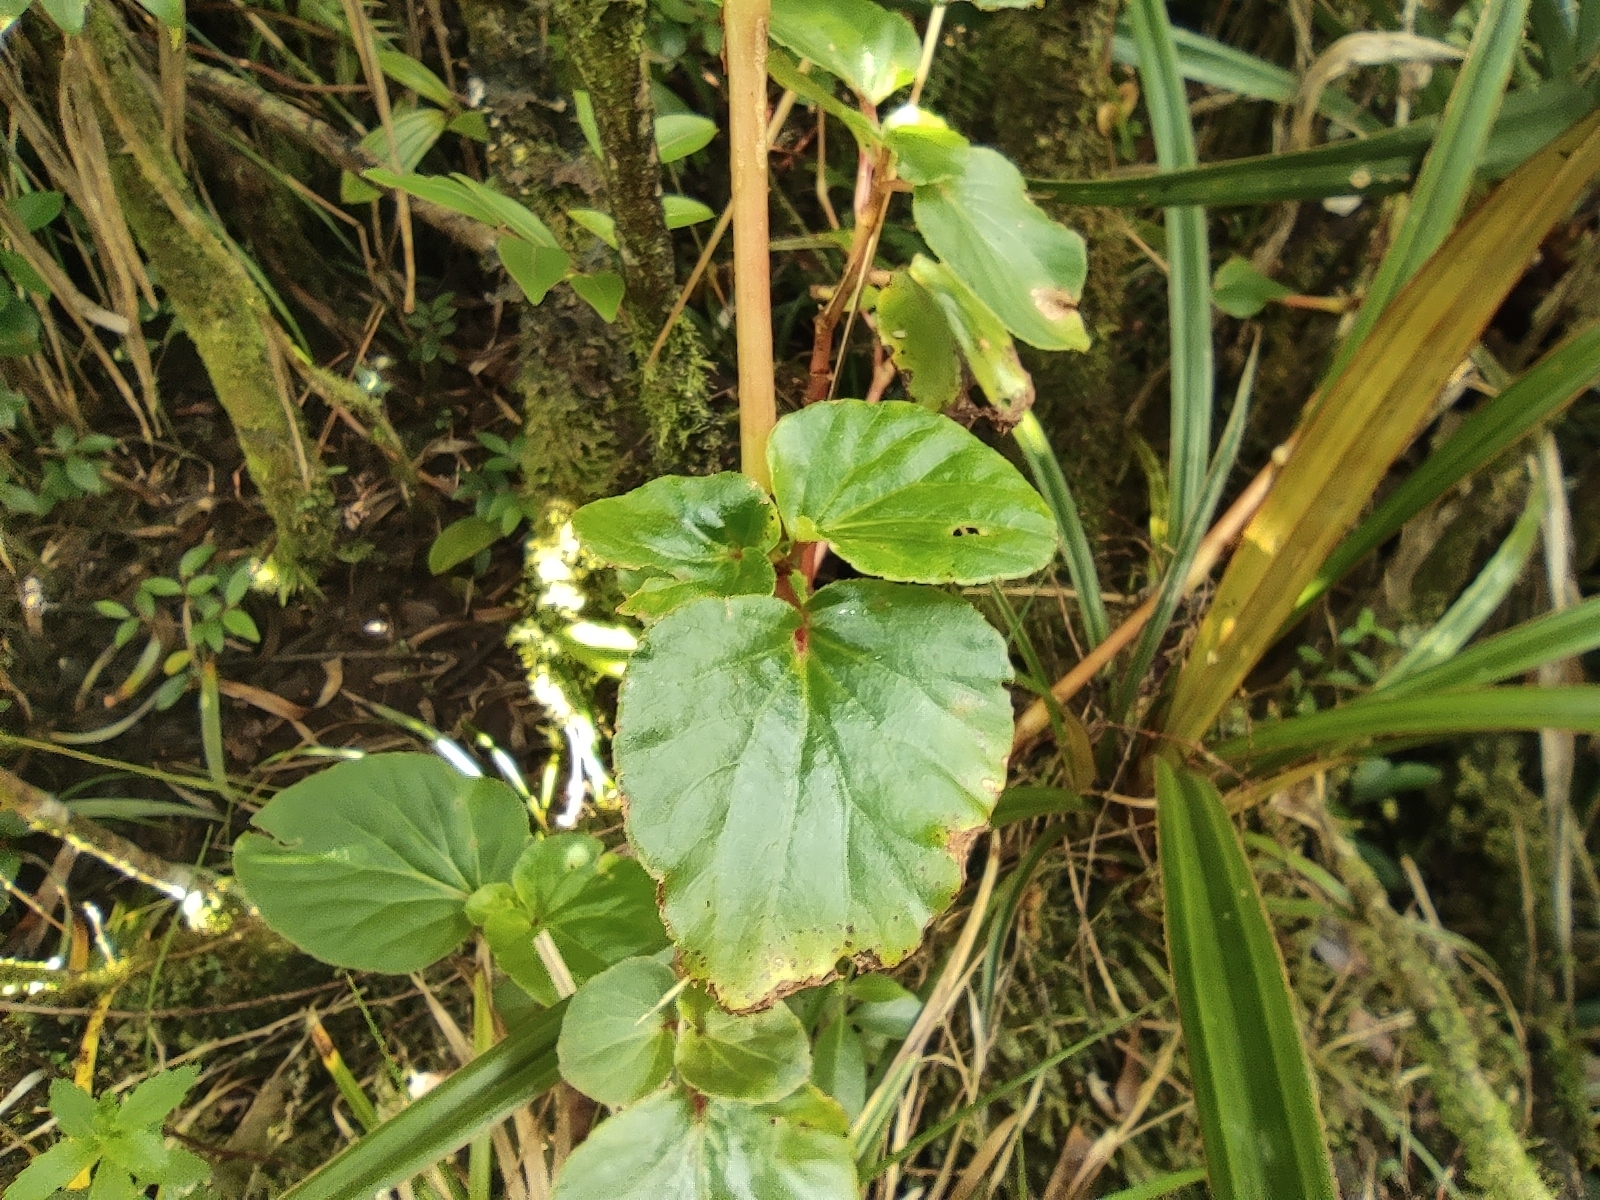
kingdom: Plantae
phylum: Tracheophyta
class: Magnoliopsida
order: Cucurbitales
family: Begoniaceae
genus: Begonia
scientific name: Begonia cucullata
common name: Clubbed begonia
